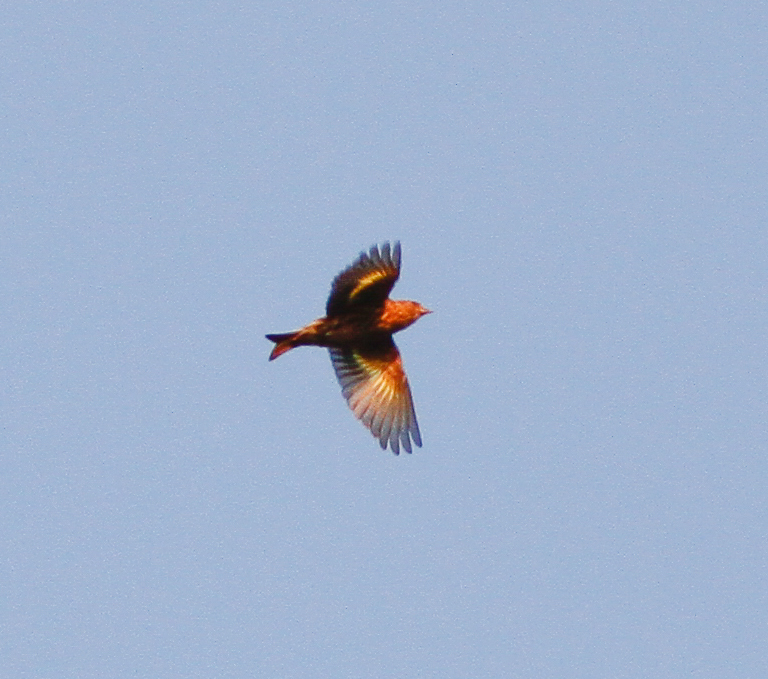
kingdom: Animalia
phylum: Chordata
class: Aves
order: Passeriformes
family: Fringillidae
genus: Spinus
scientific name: Spinus pinus
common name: Pine siskin
